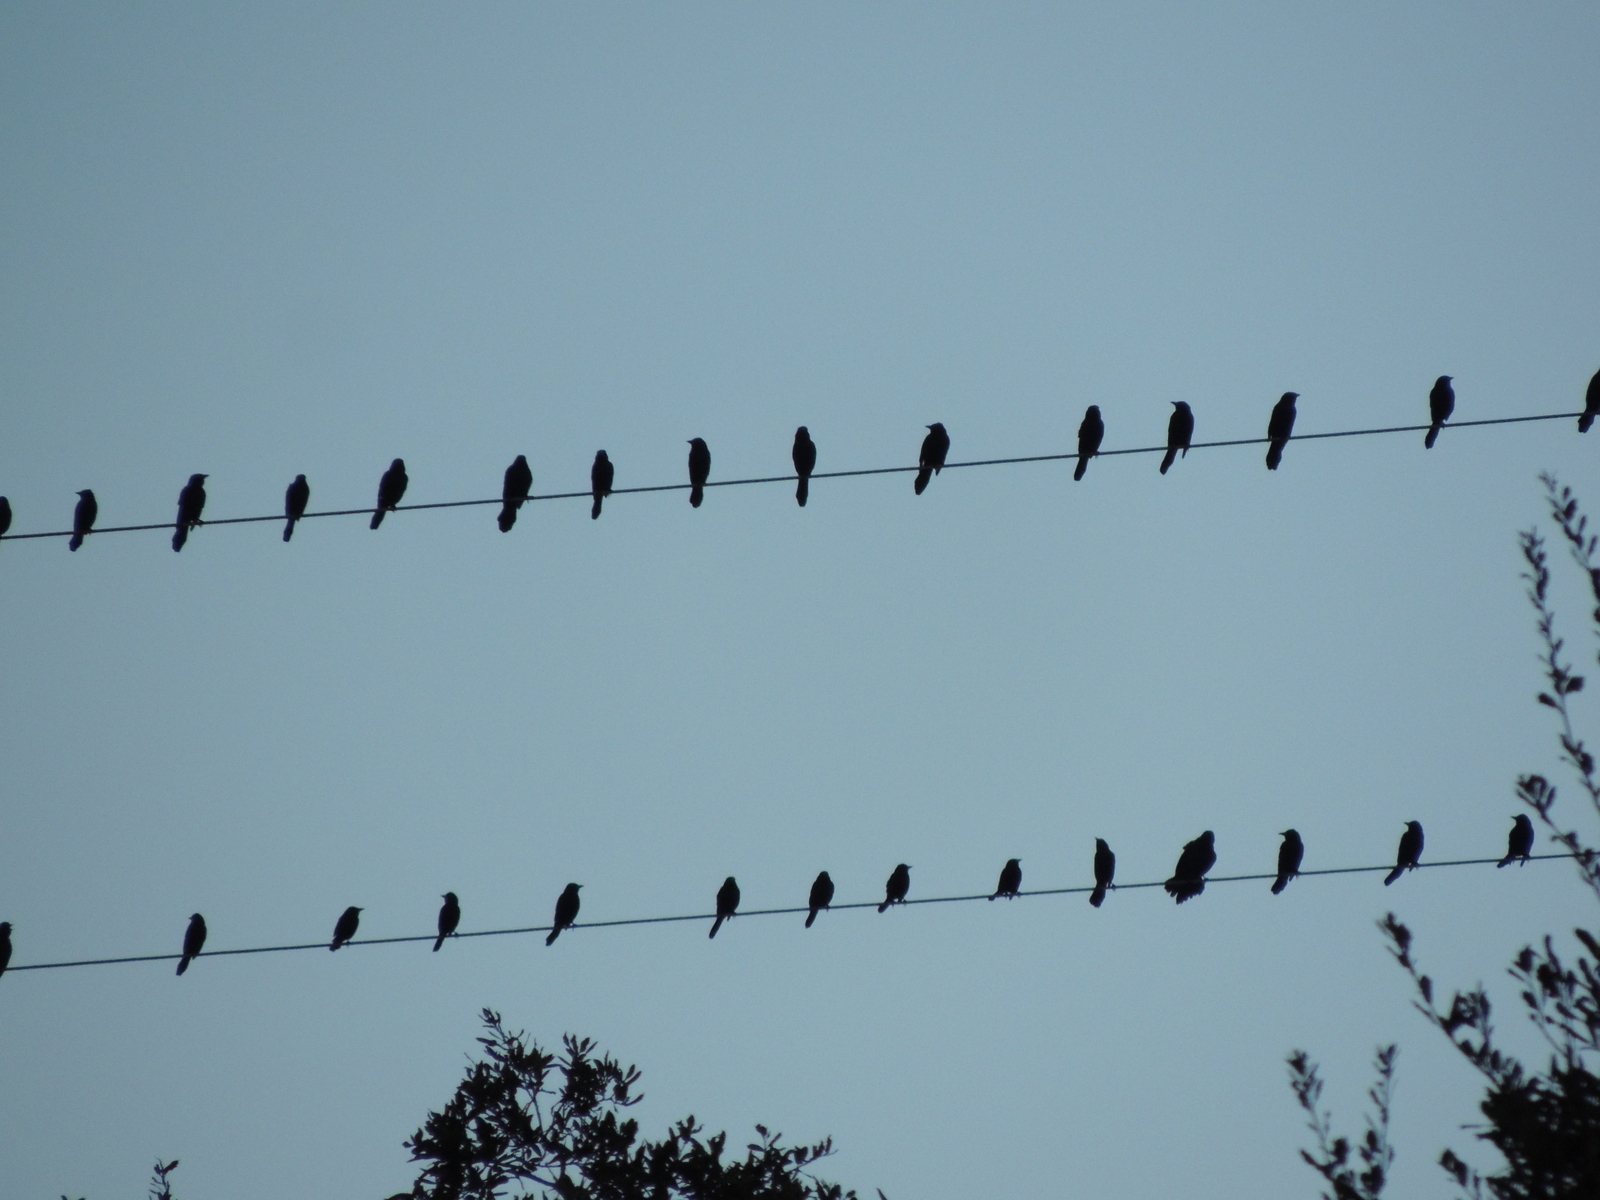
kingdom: Animalia
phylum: Chordata
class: Aves
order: Passeriformes
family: Icteridae
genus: Quiscalus
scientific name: Quiscalus quiscula
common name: Common grackle
